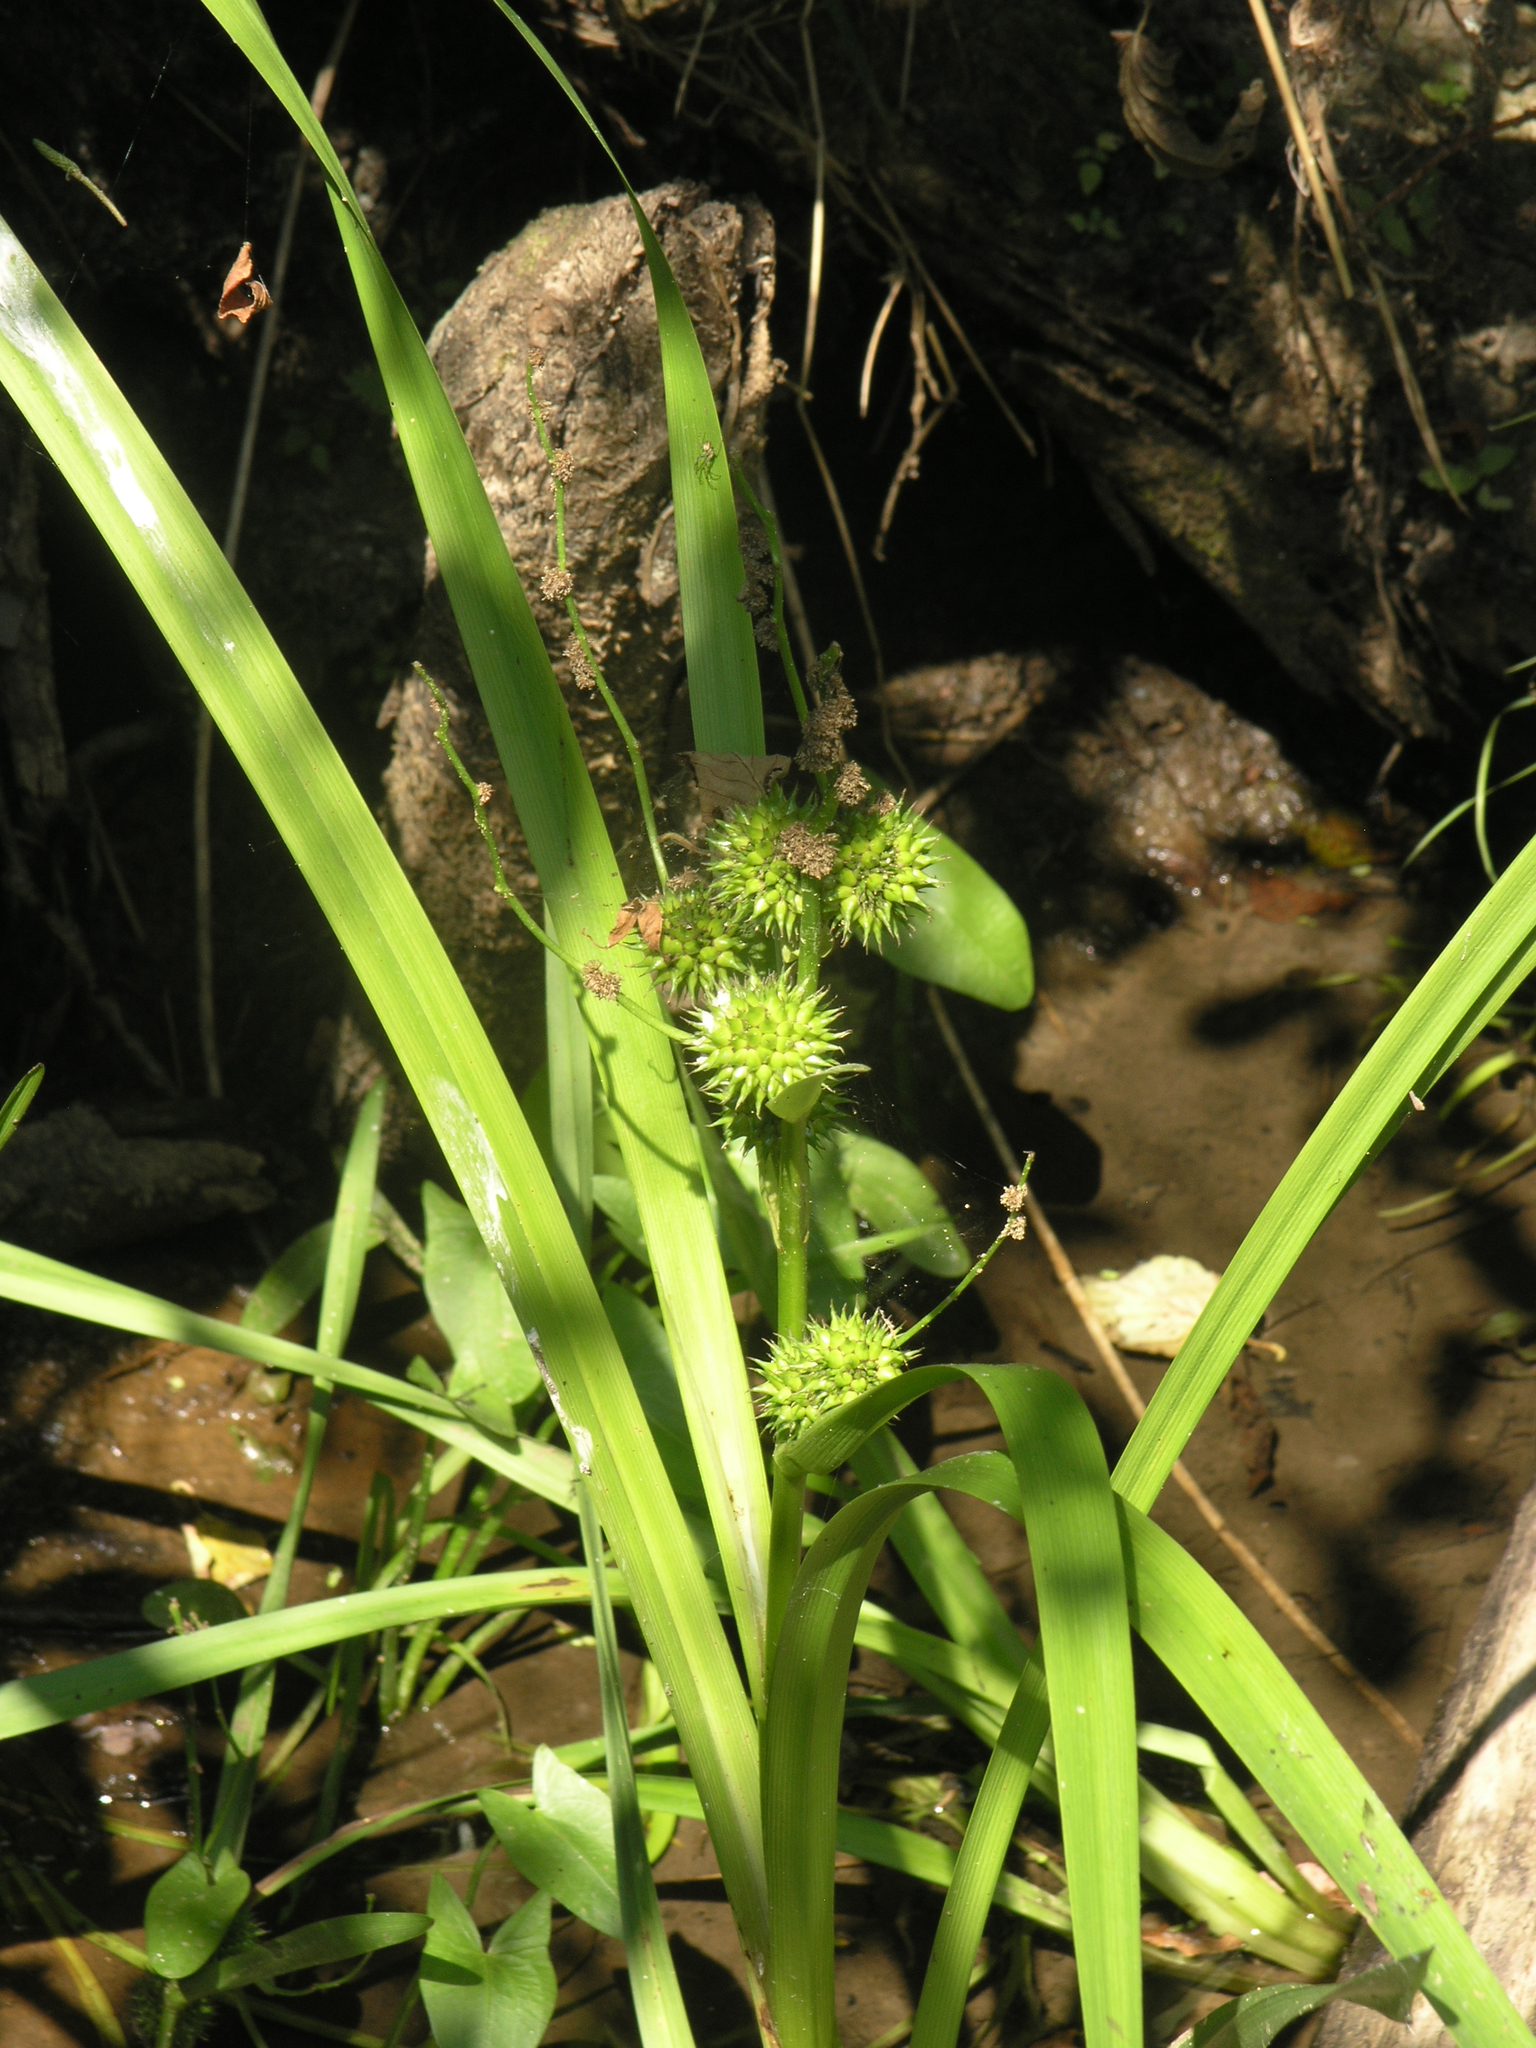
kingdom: Plantae
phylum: Tracheophyta
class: Liliopsida
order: Poales
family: Typhaceae
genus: Sparganium
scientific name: Sparganium erectum
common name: Branched bur-reed
